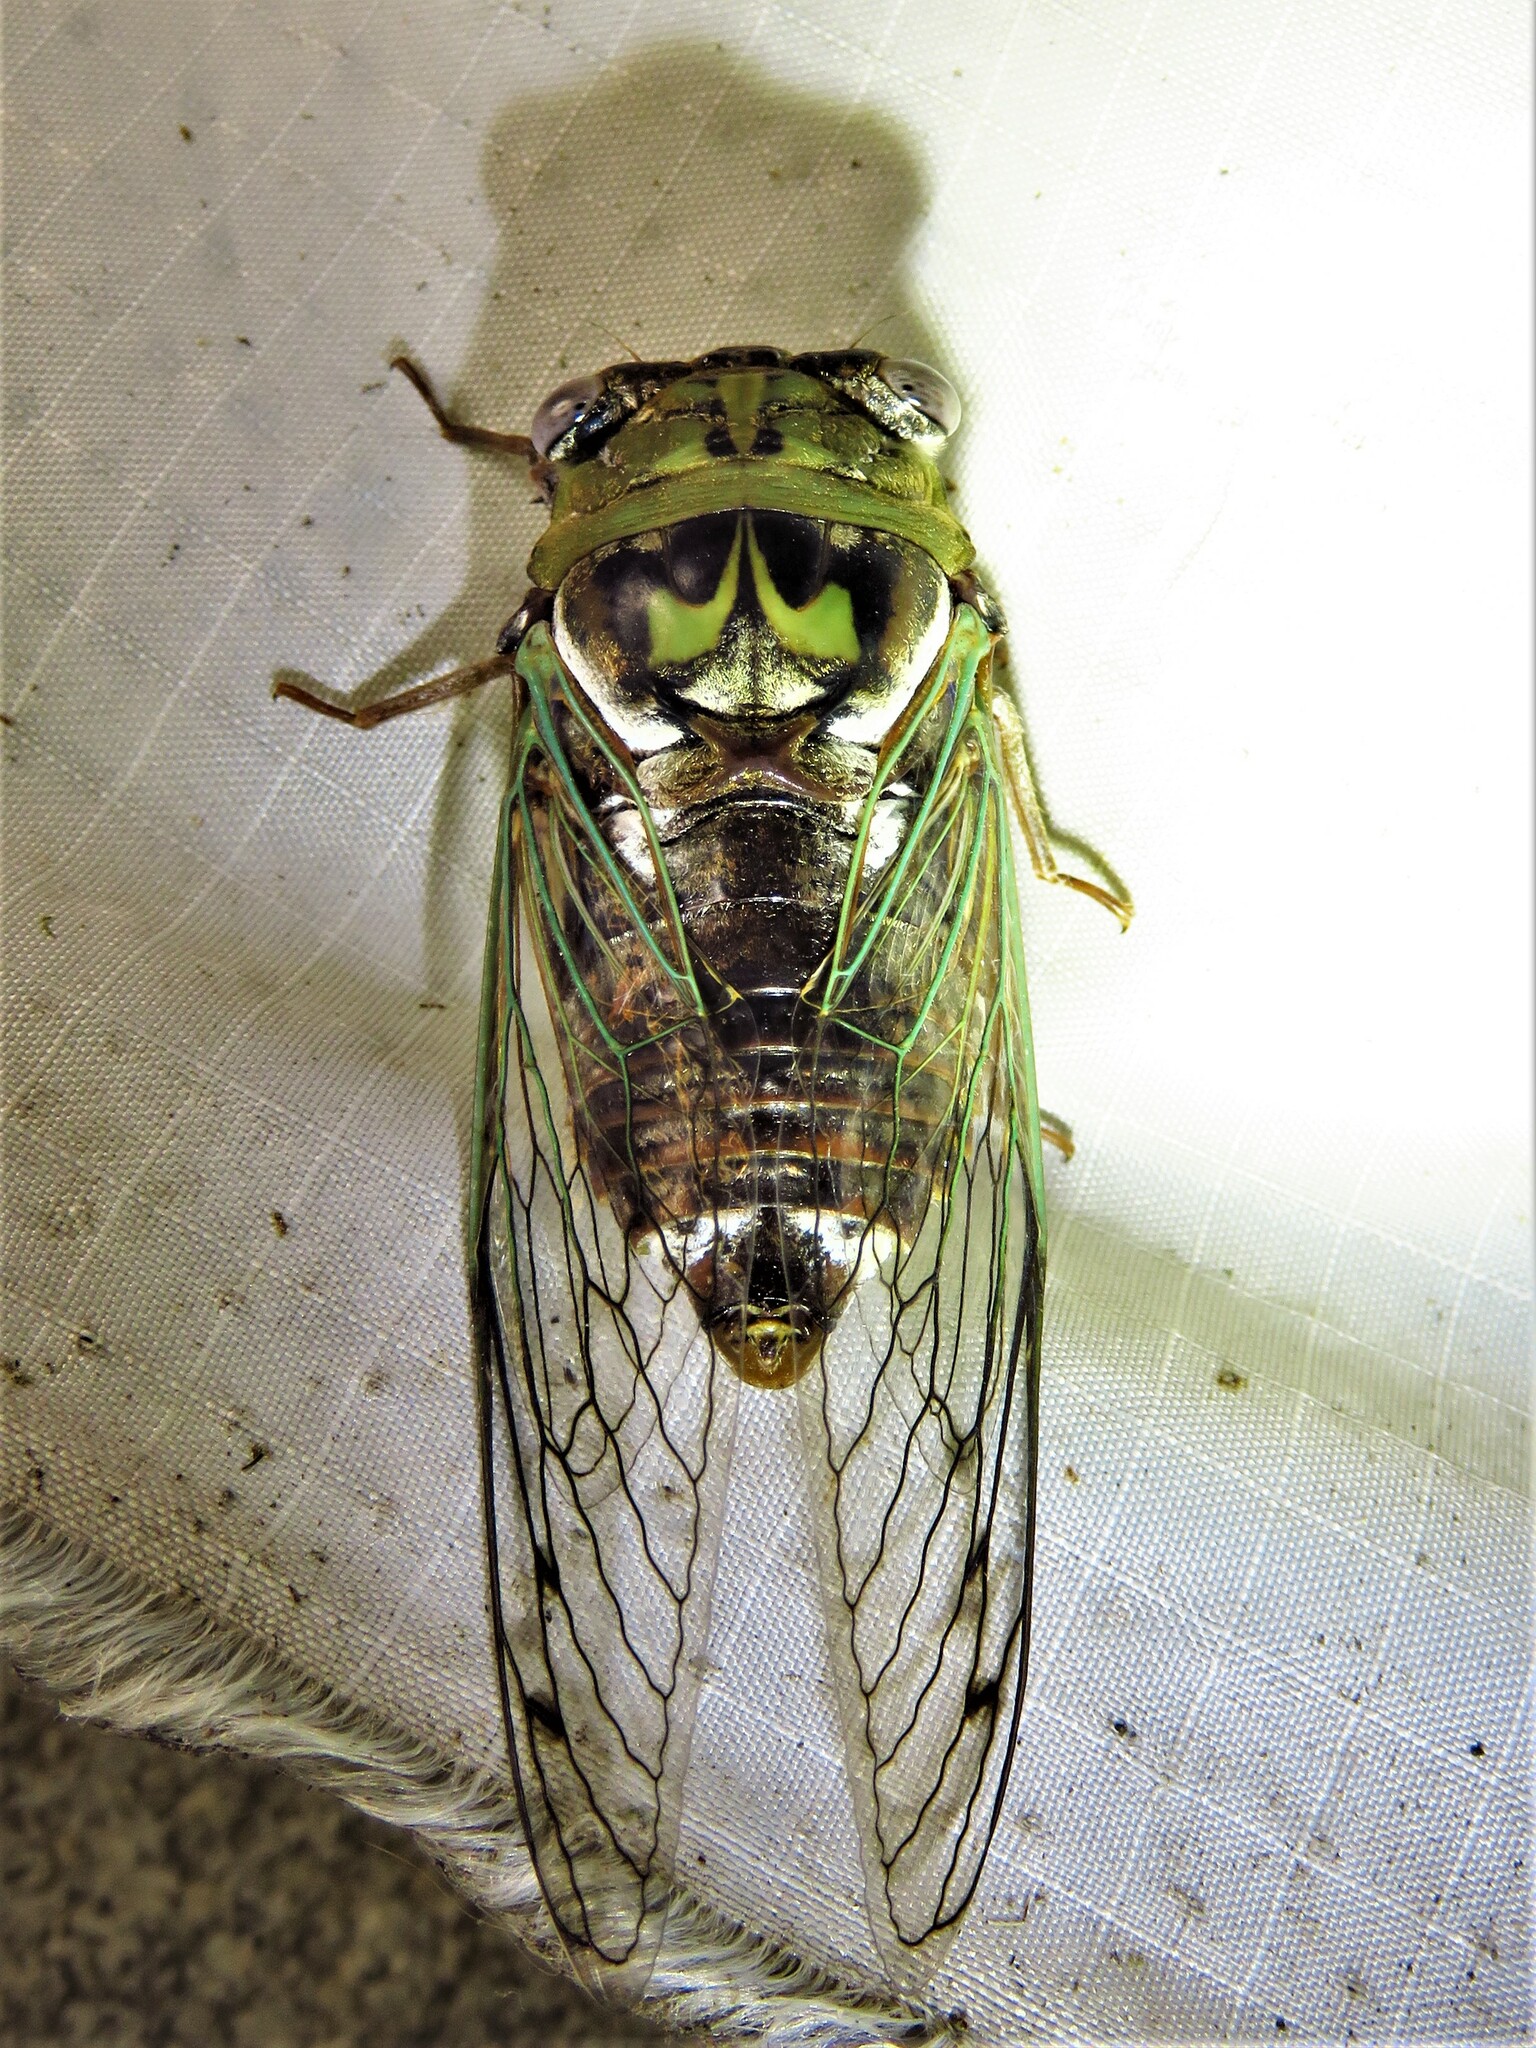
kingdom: Animalia
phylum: Arthropoda
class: Insecta
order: Hemiptera
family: Cicadidae
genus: Megatibicen
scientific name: Megatibicen resh
